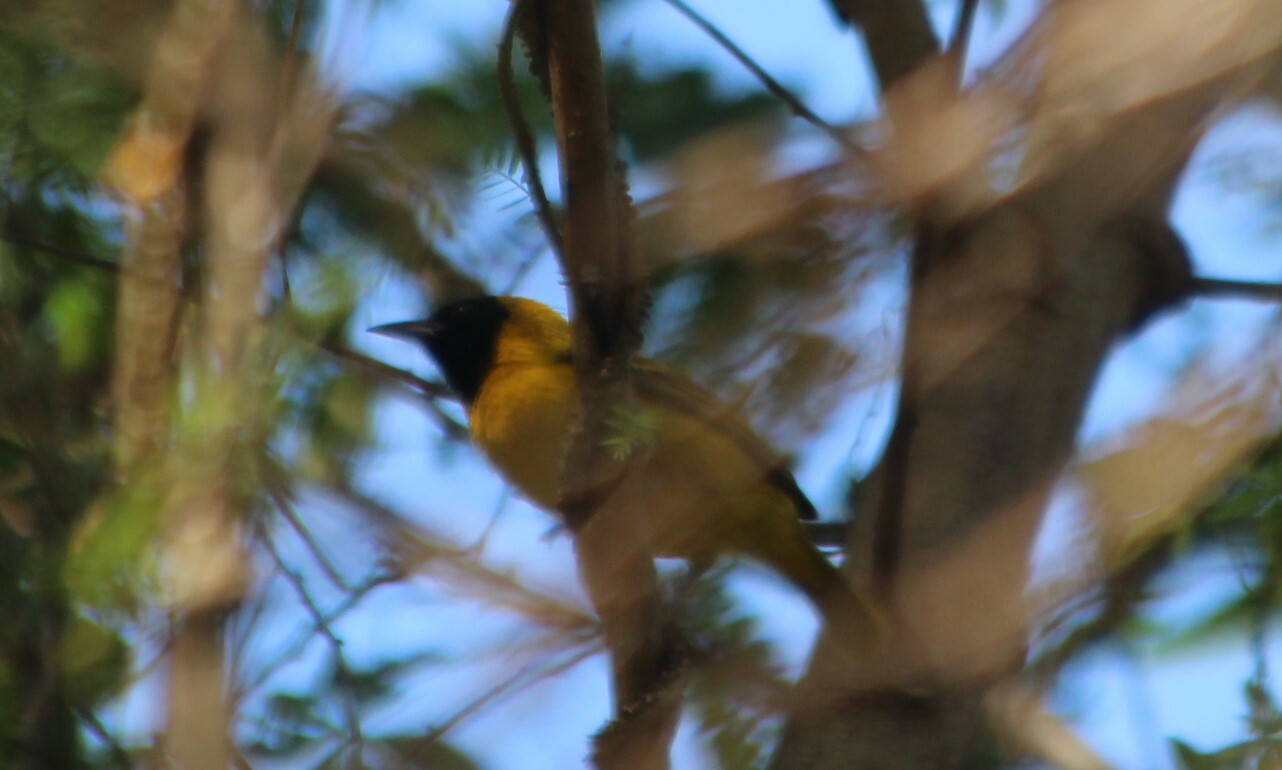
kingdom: Animalia
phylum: Chordata
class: Aves
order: Passeriformes
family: Ploceidae
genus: Ploceus
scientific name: Ploceus pelzelni
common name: Slender-billed weaver
